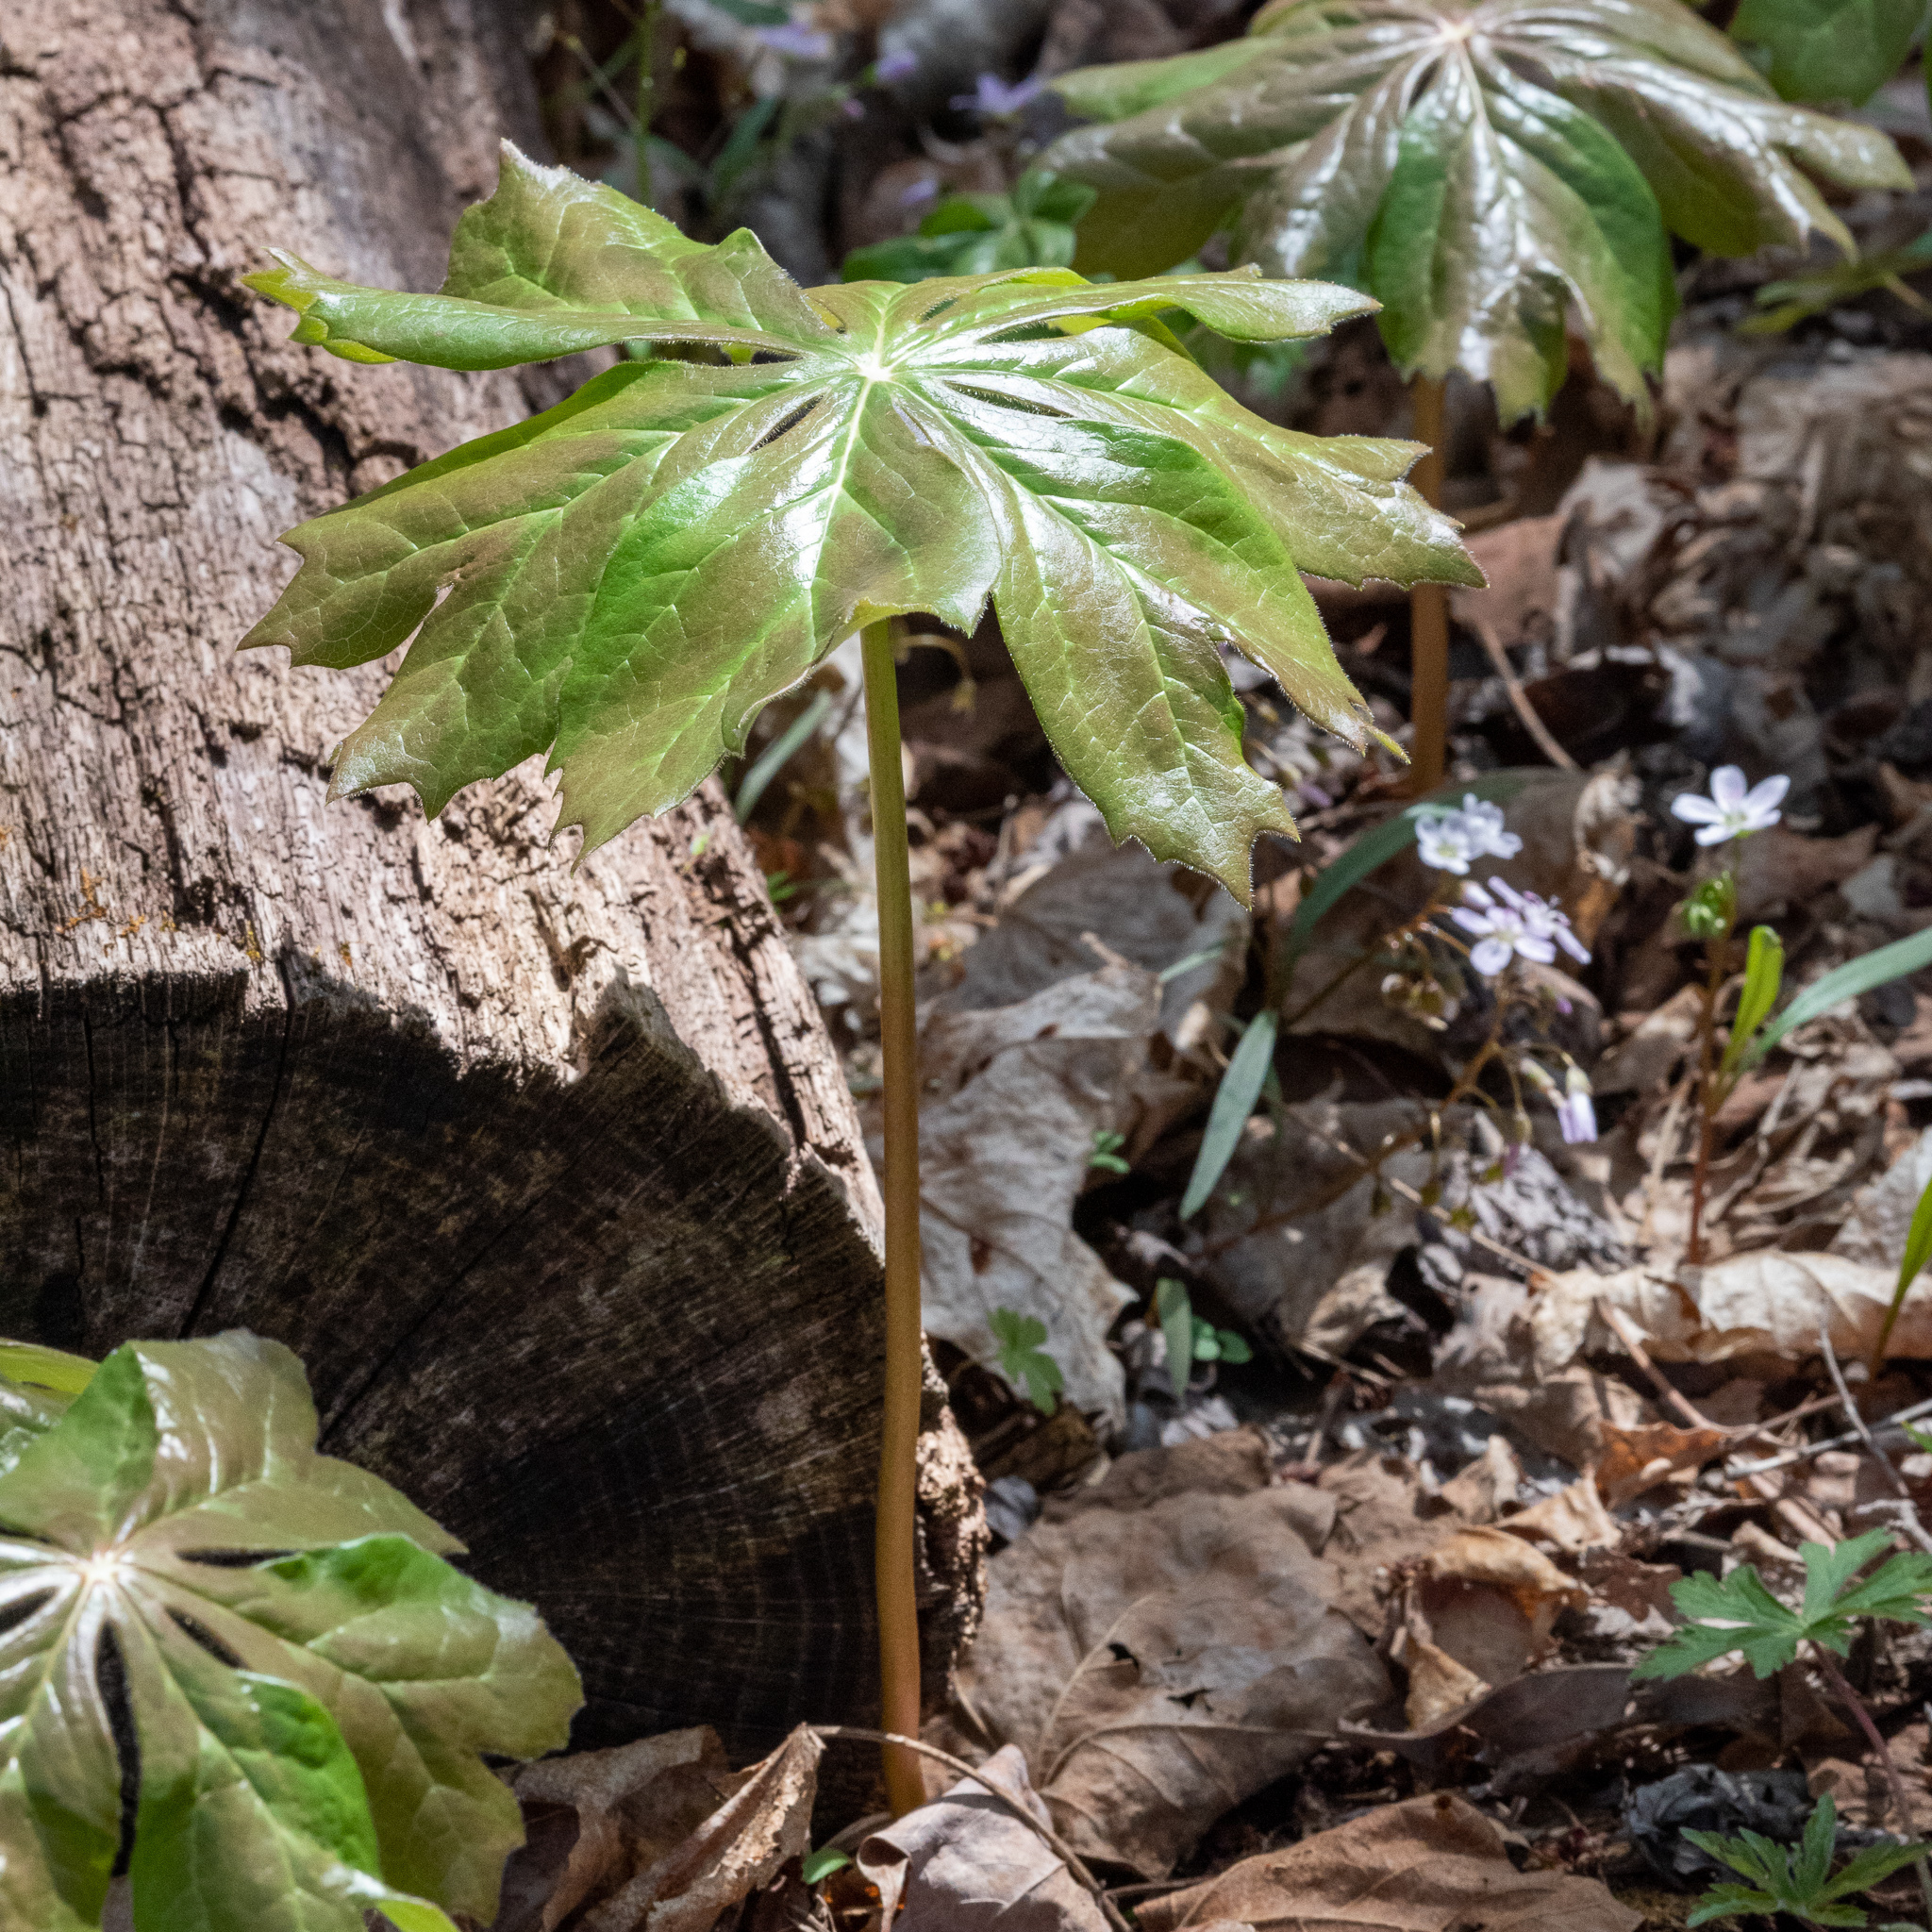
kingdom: Plantae
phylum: Tracheophyta
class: Magnoliopsida
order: Ranunculales
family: Berberidaceae
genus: Podophyllum
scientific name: Podophyllum peltatum
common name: Wild mandrake
